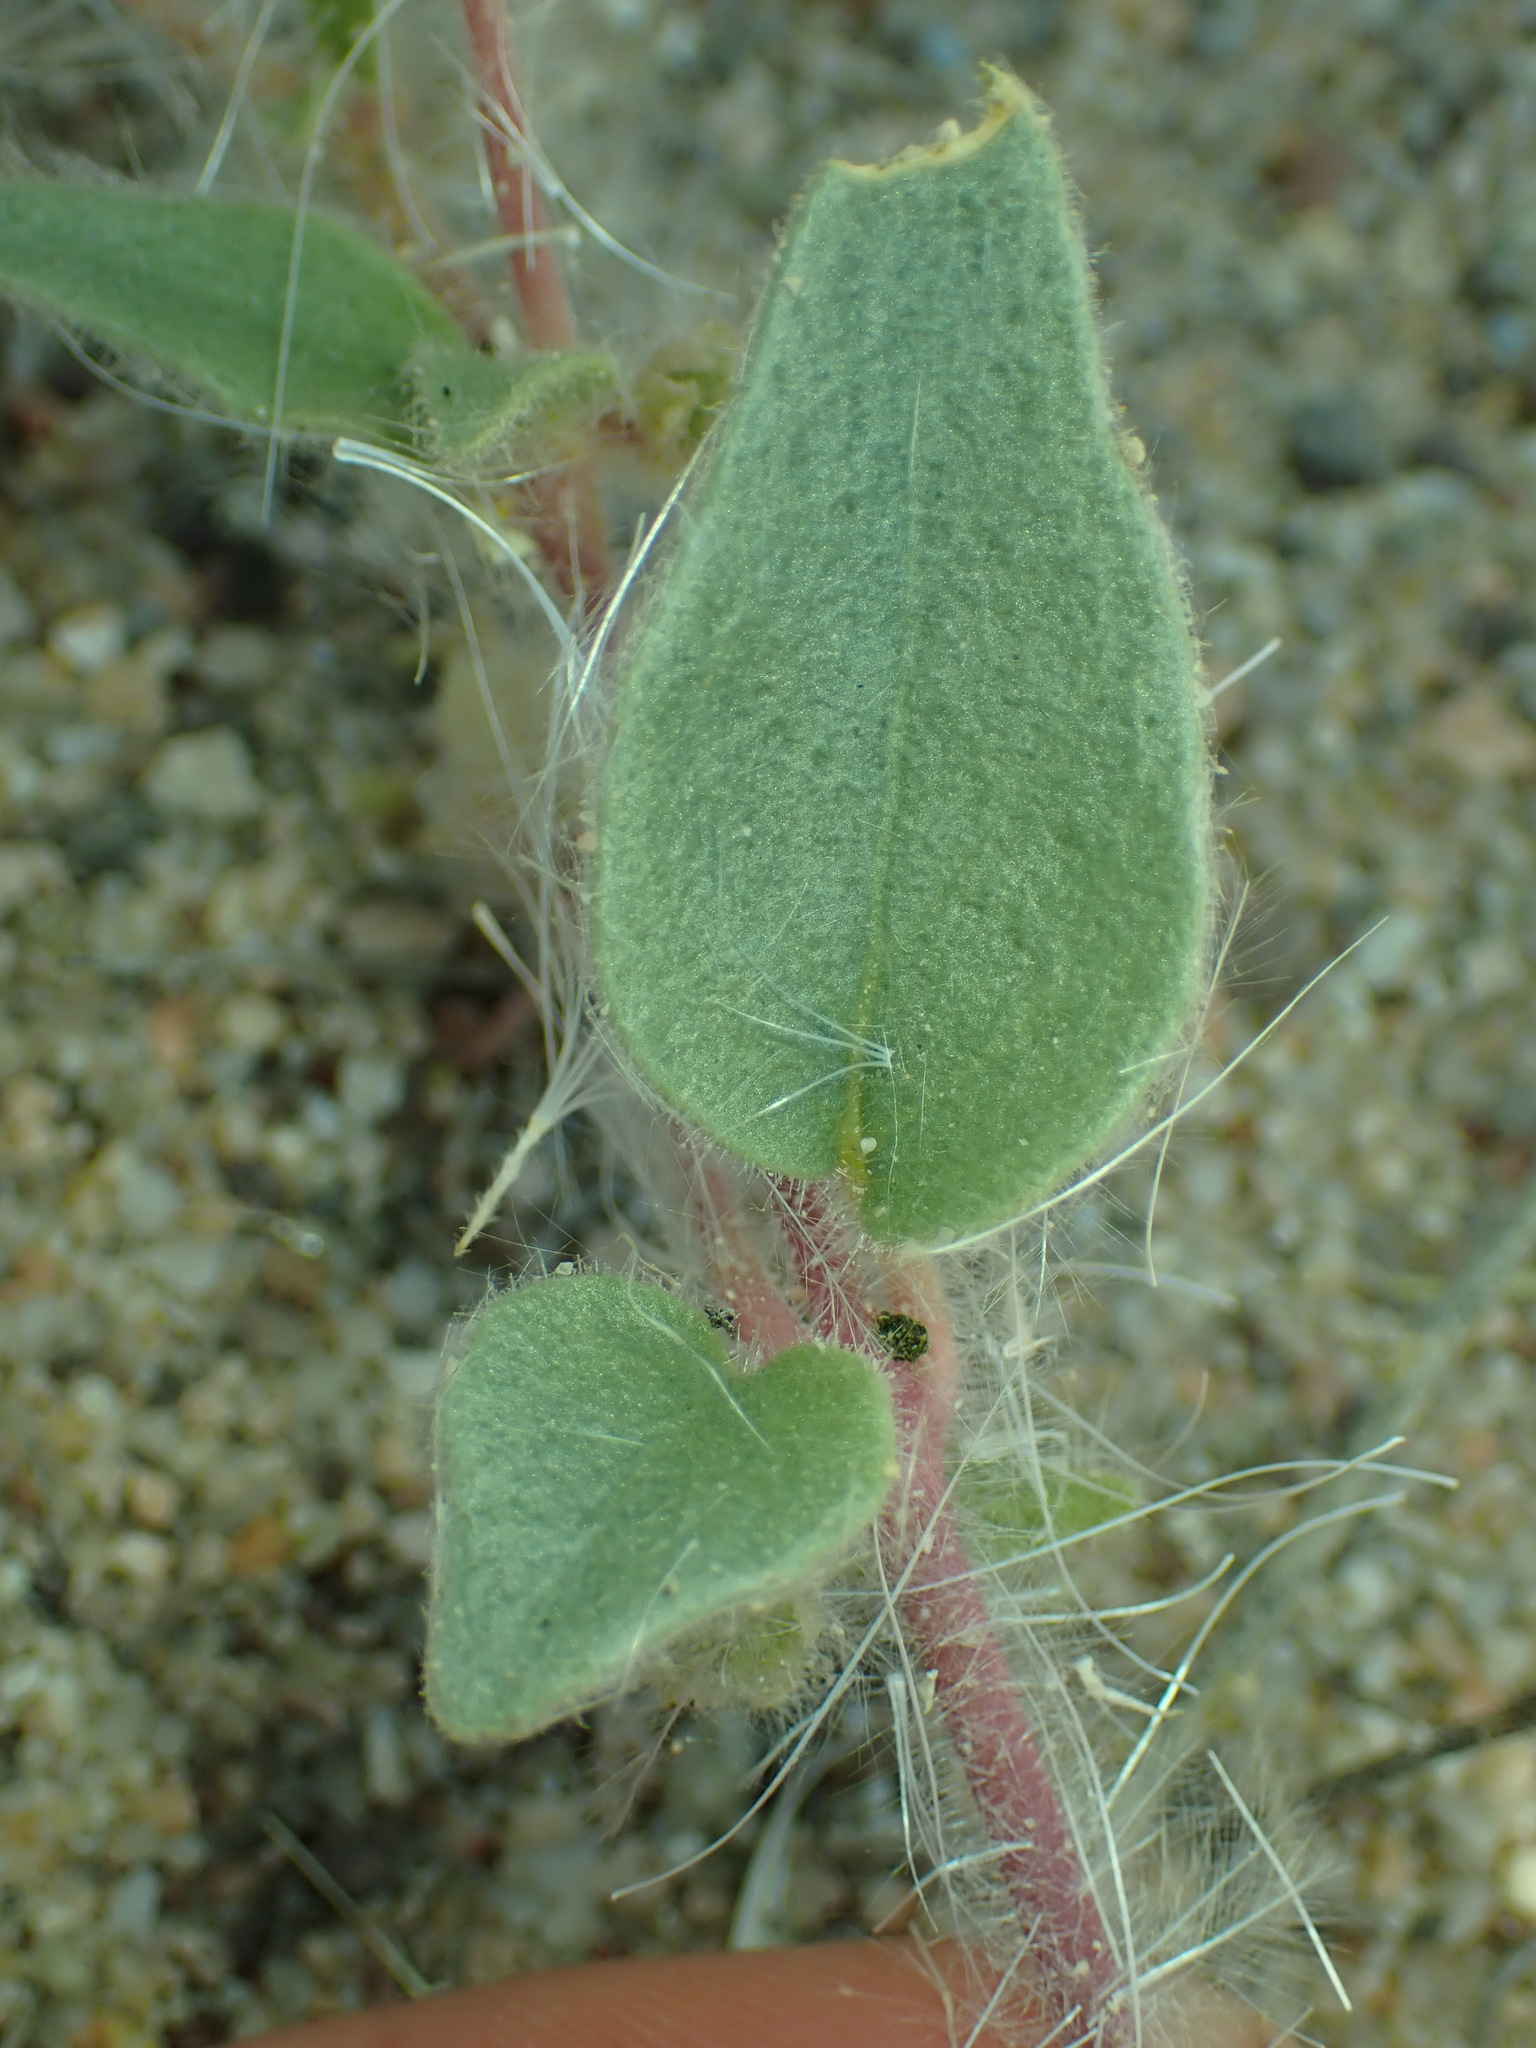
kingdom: Plantae
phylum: Tracheophyta
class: Magnoliopsida
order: Caryophyllales
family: Nyctaginaceae
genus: Abronia
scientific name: Abronia pogonantha
